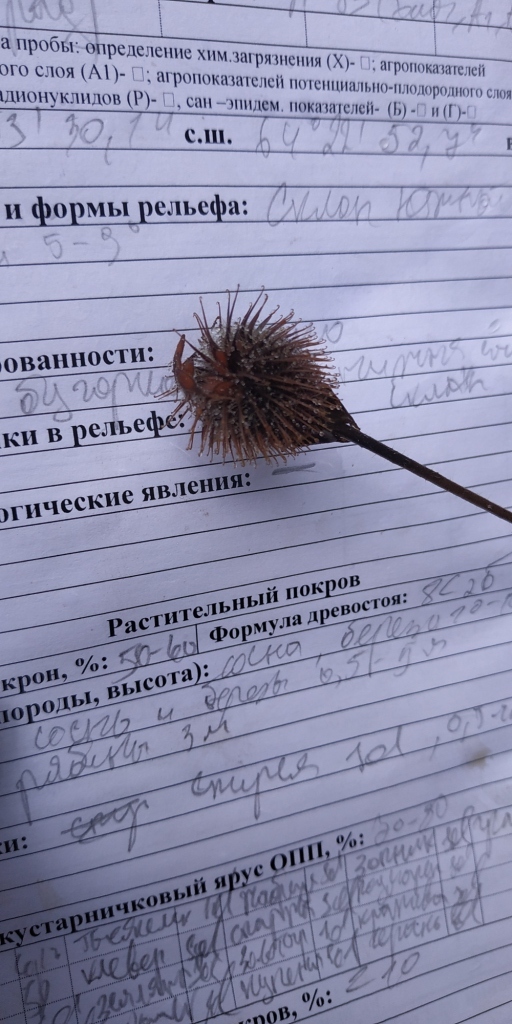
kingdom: Plantae
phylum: Tracheophyta
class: Magnoliopsida
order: Rosales
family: Rosaceae
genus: Geum
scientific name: Geum aleppicum
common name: Yellow avens
